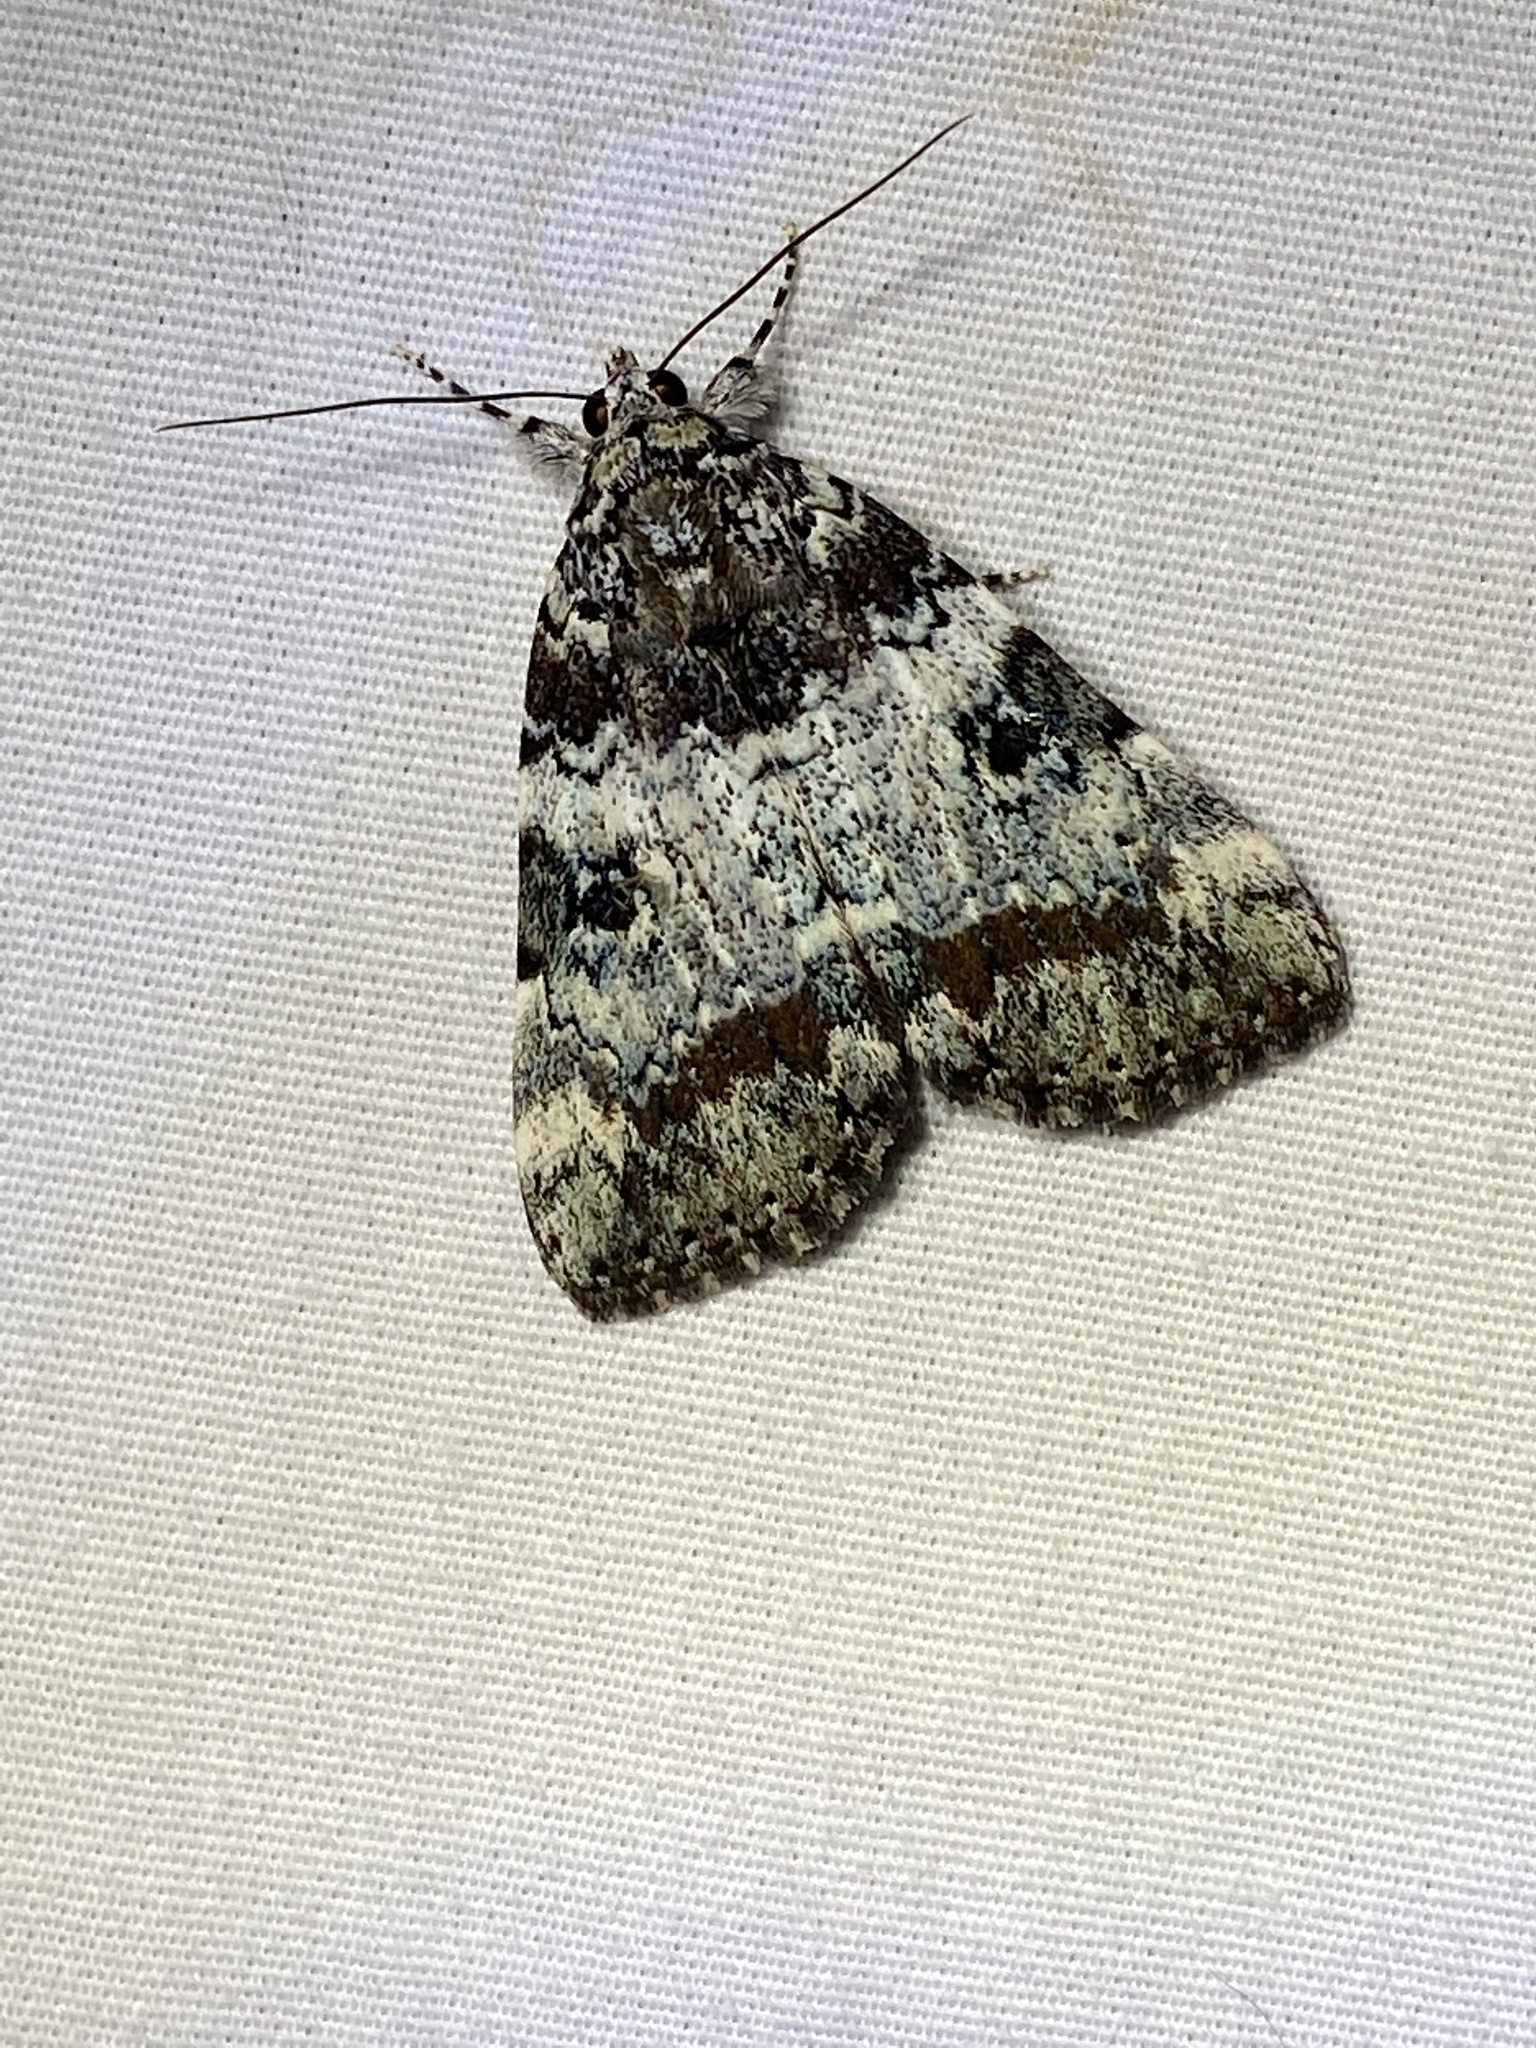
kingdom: Animalia
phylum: Arthropoda
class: Insecta
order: Lepidoptera
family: Erebidae
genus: Catocala
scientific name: Catocala connubialis
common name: Connubial underwing
